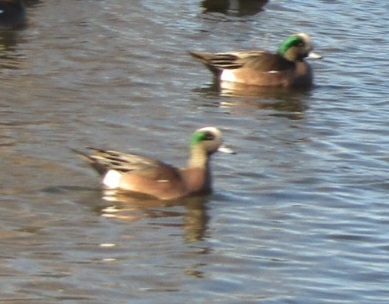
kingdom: Animalia
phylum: Chordata
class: Aves
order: Anseriformes
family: Anatidae
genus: Mareca
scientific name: Mareca americana
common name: American wigeon
